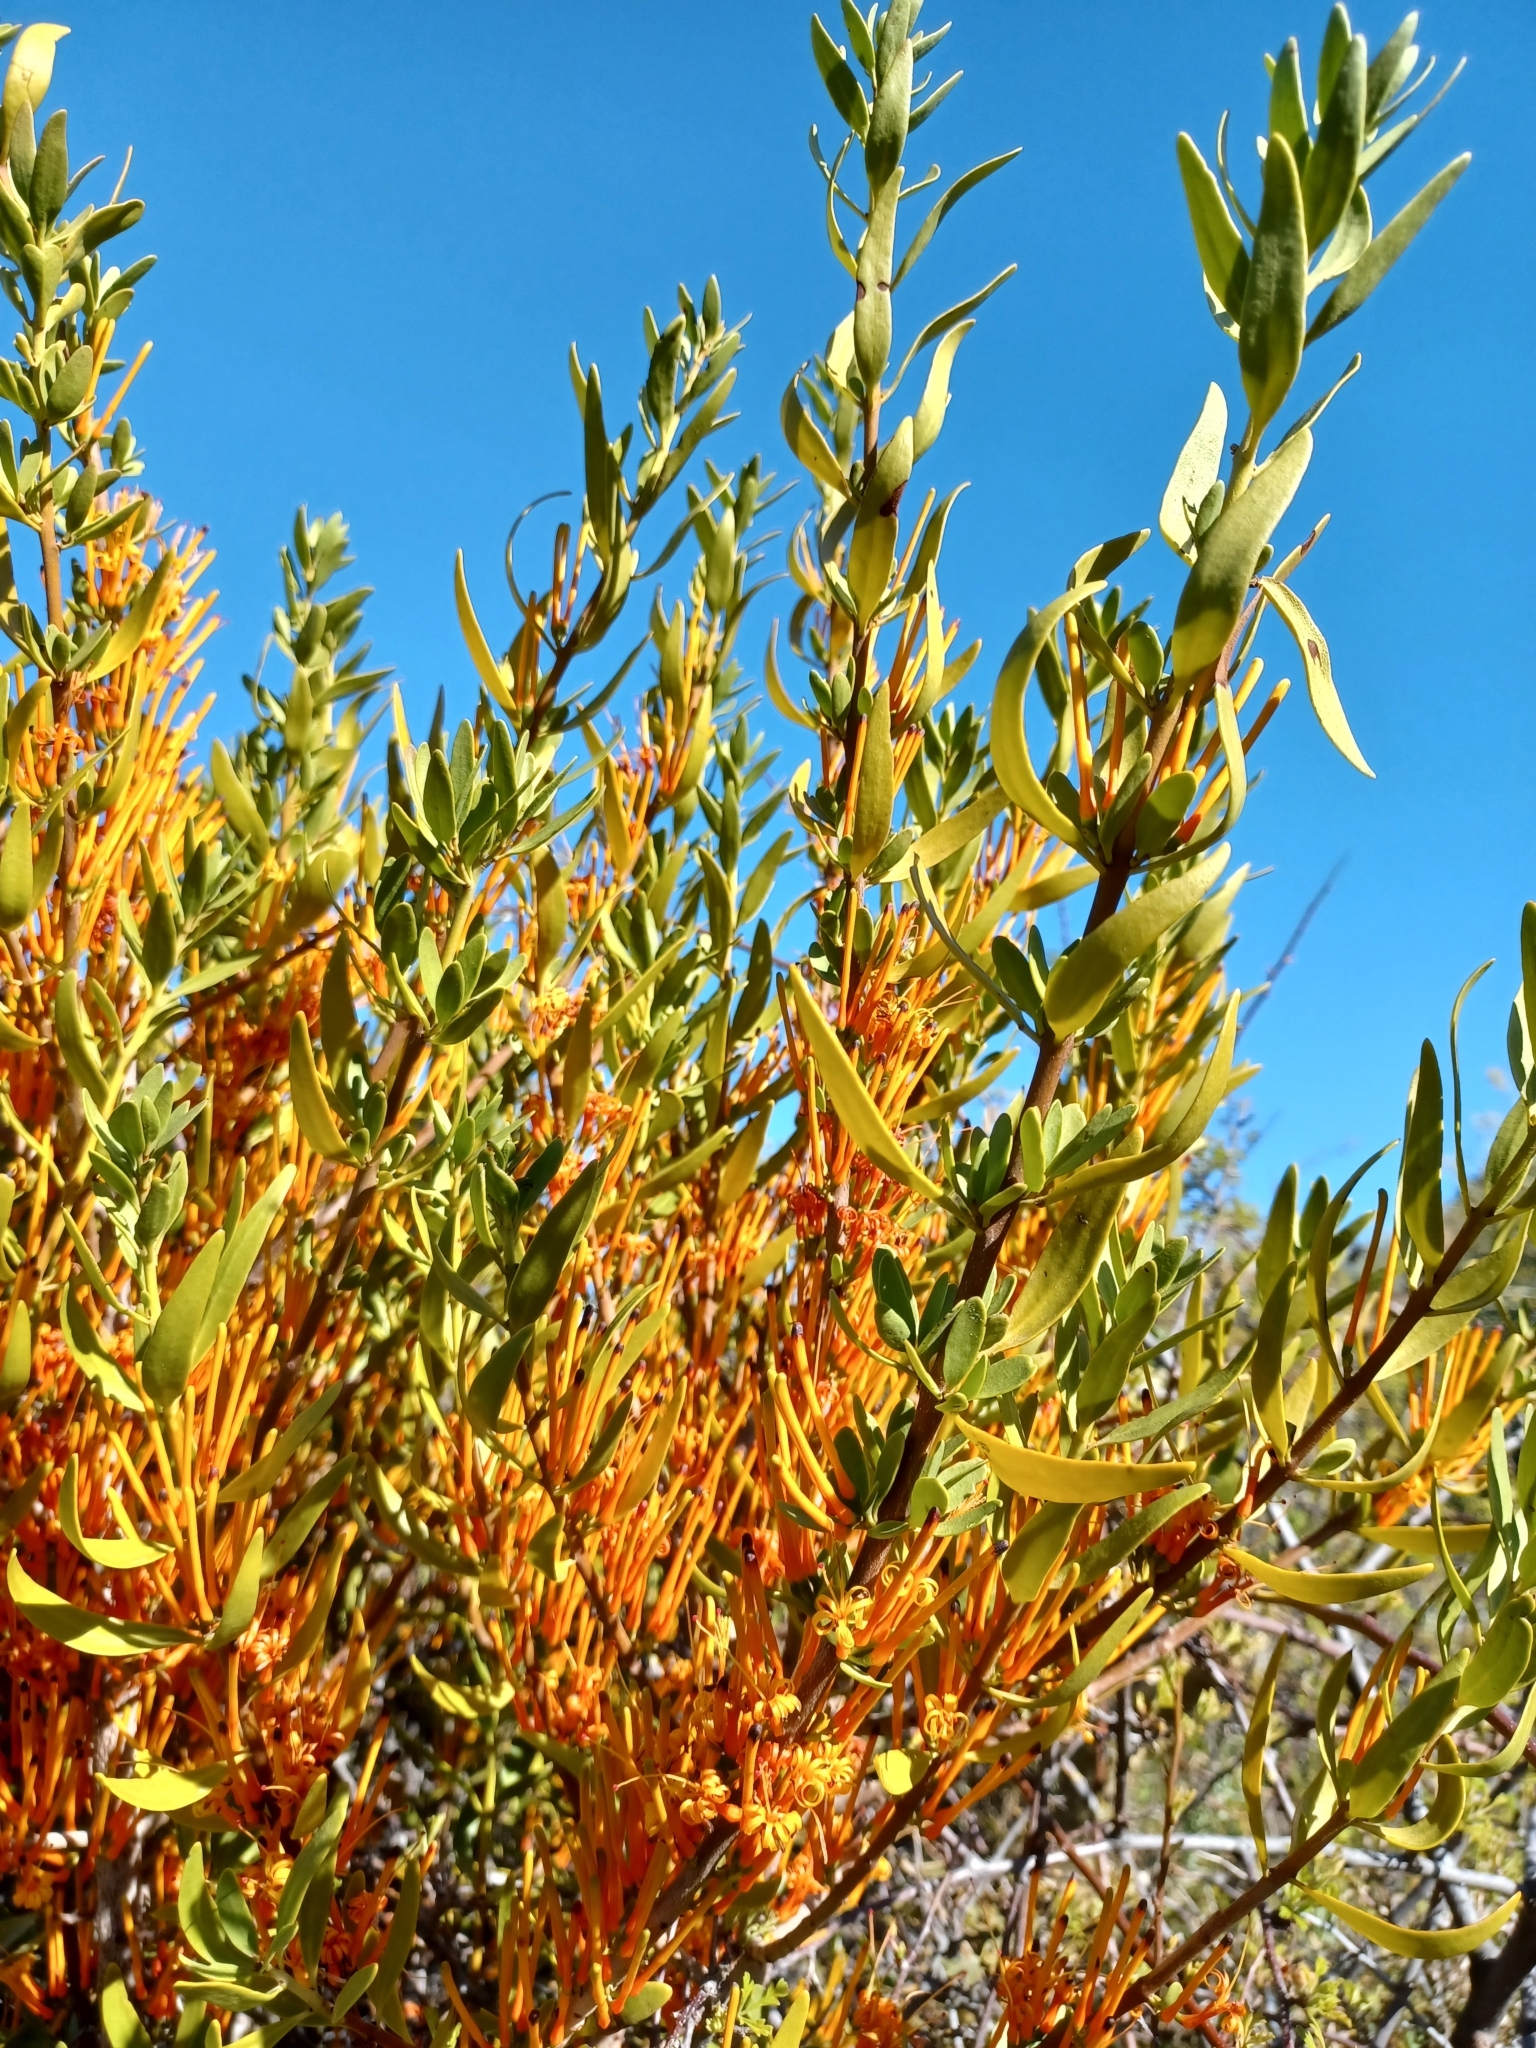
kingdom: Plantae
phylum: Tracheophyta
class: Magnoliopsida
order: Santalales
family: Loranthaceae
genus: Moquiniella
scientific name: Moquiniella rubra
